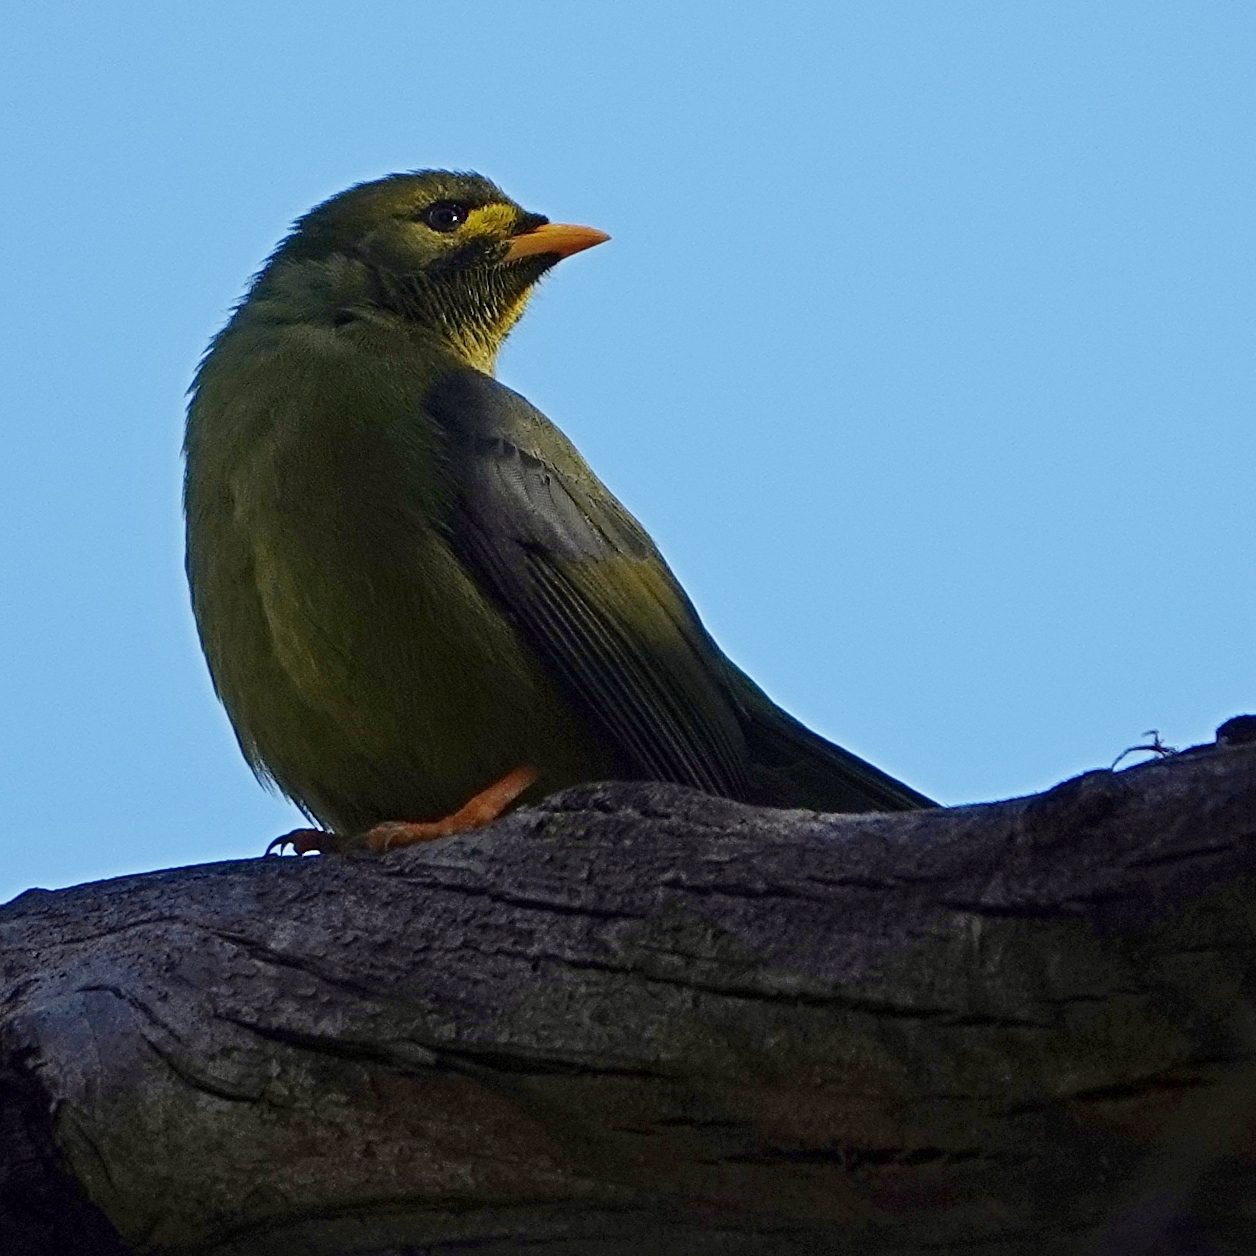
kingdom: Animalia
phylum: Chordata
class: Aves
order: Passeriformes
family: Meliphagidae
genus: Manorina
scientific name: Manorina melanophrys
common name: Bell miner
